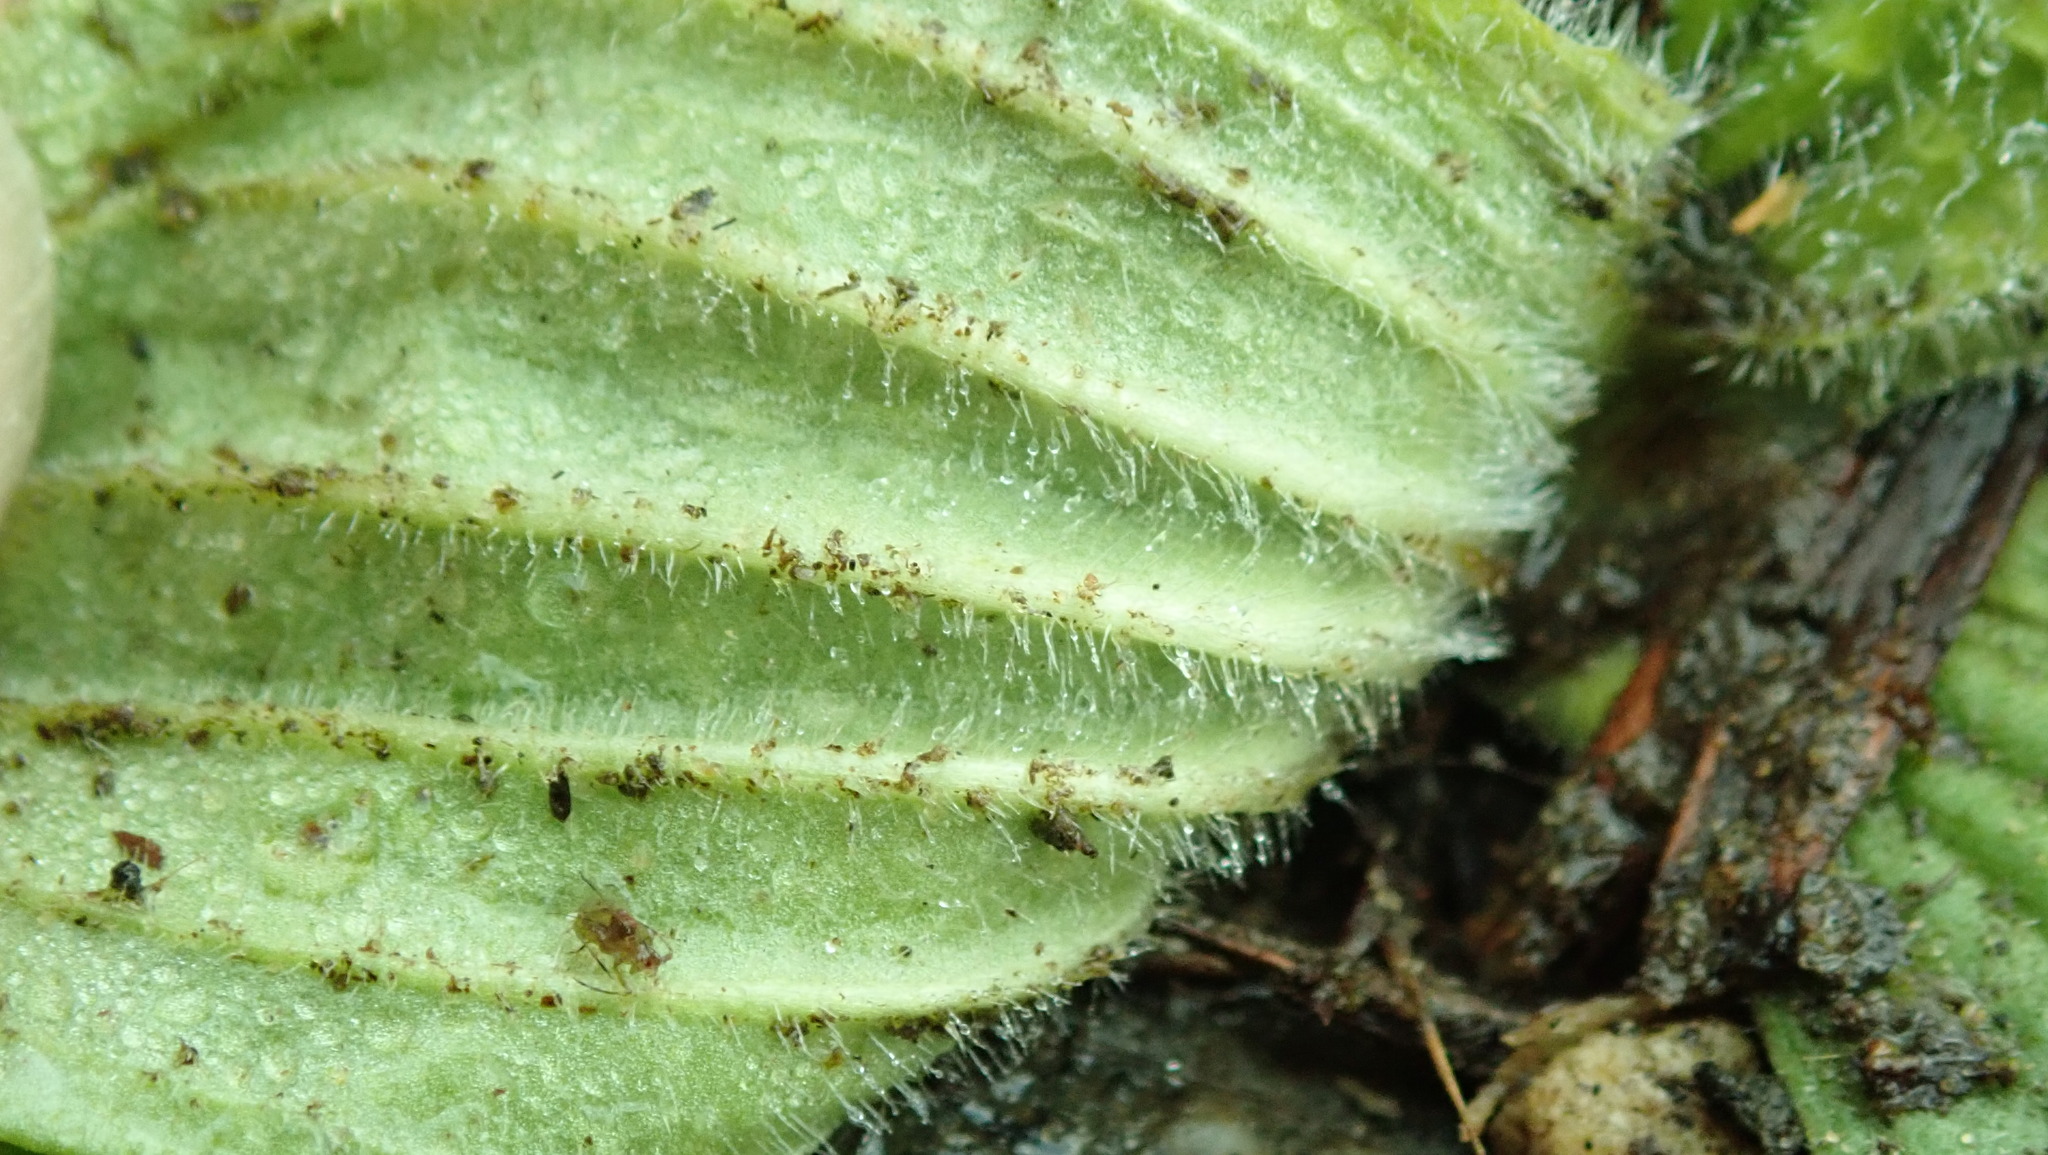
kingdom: Plantae
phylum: Tracheophyta
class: Magnoliopsida
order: Lamiales
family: Plantaginaceae
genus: Plantago
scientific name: Plantago media
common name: Hoary plantain
